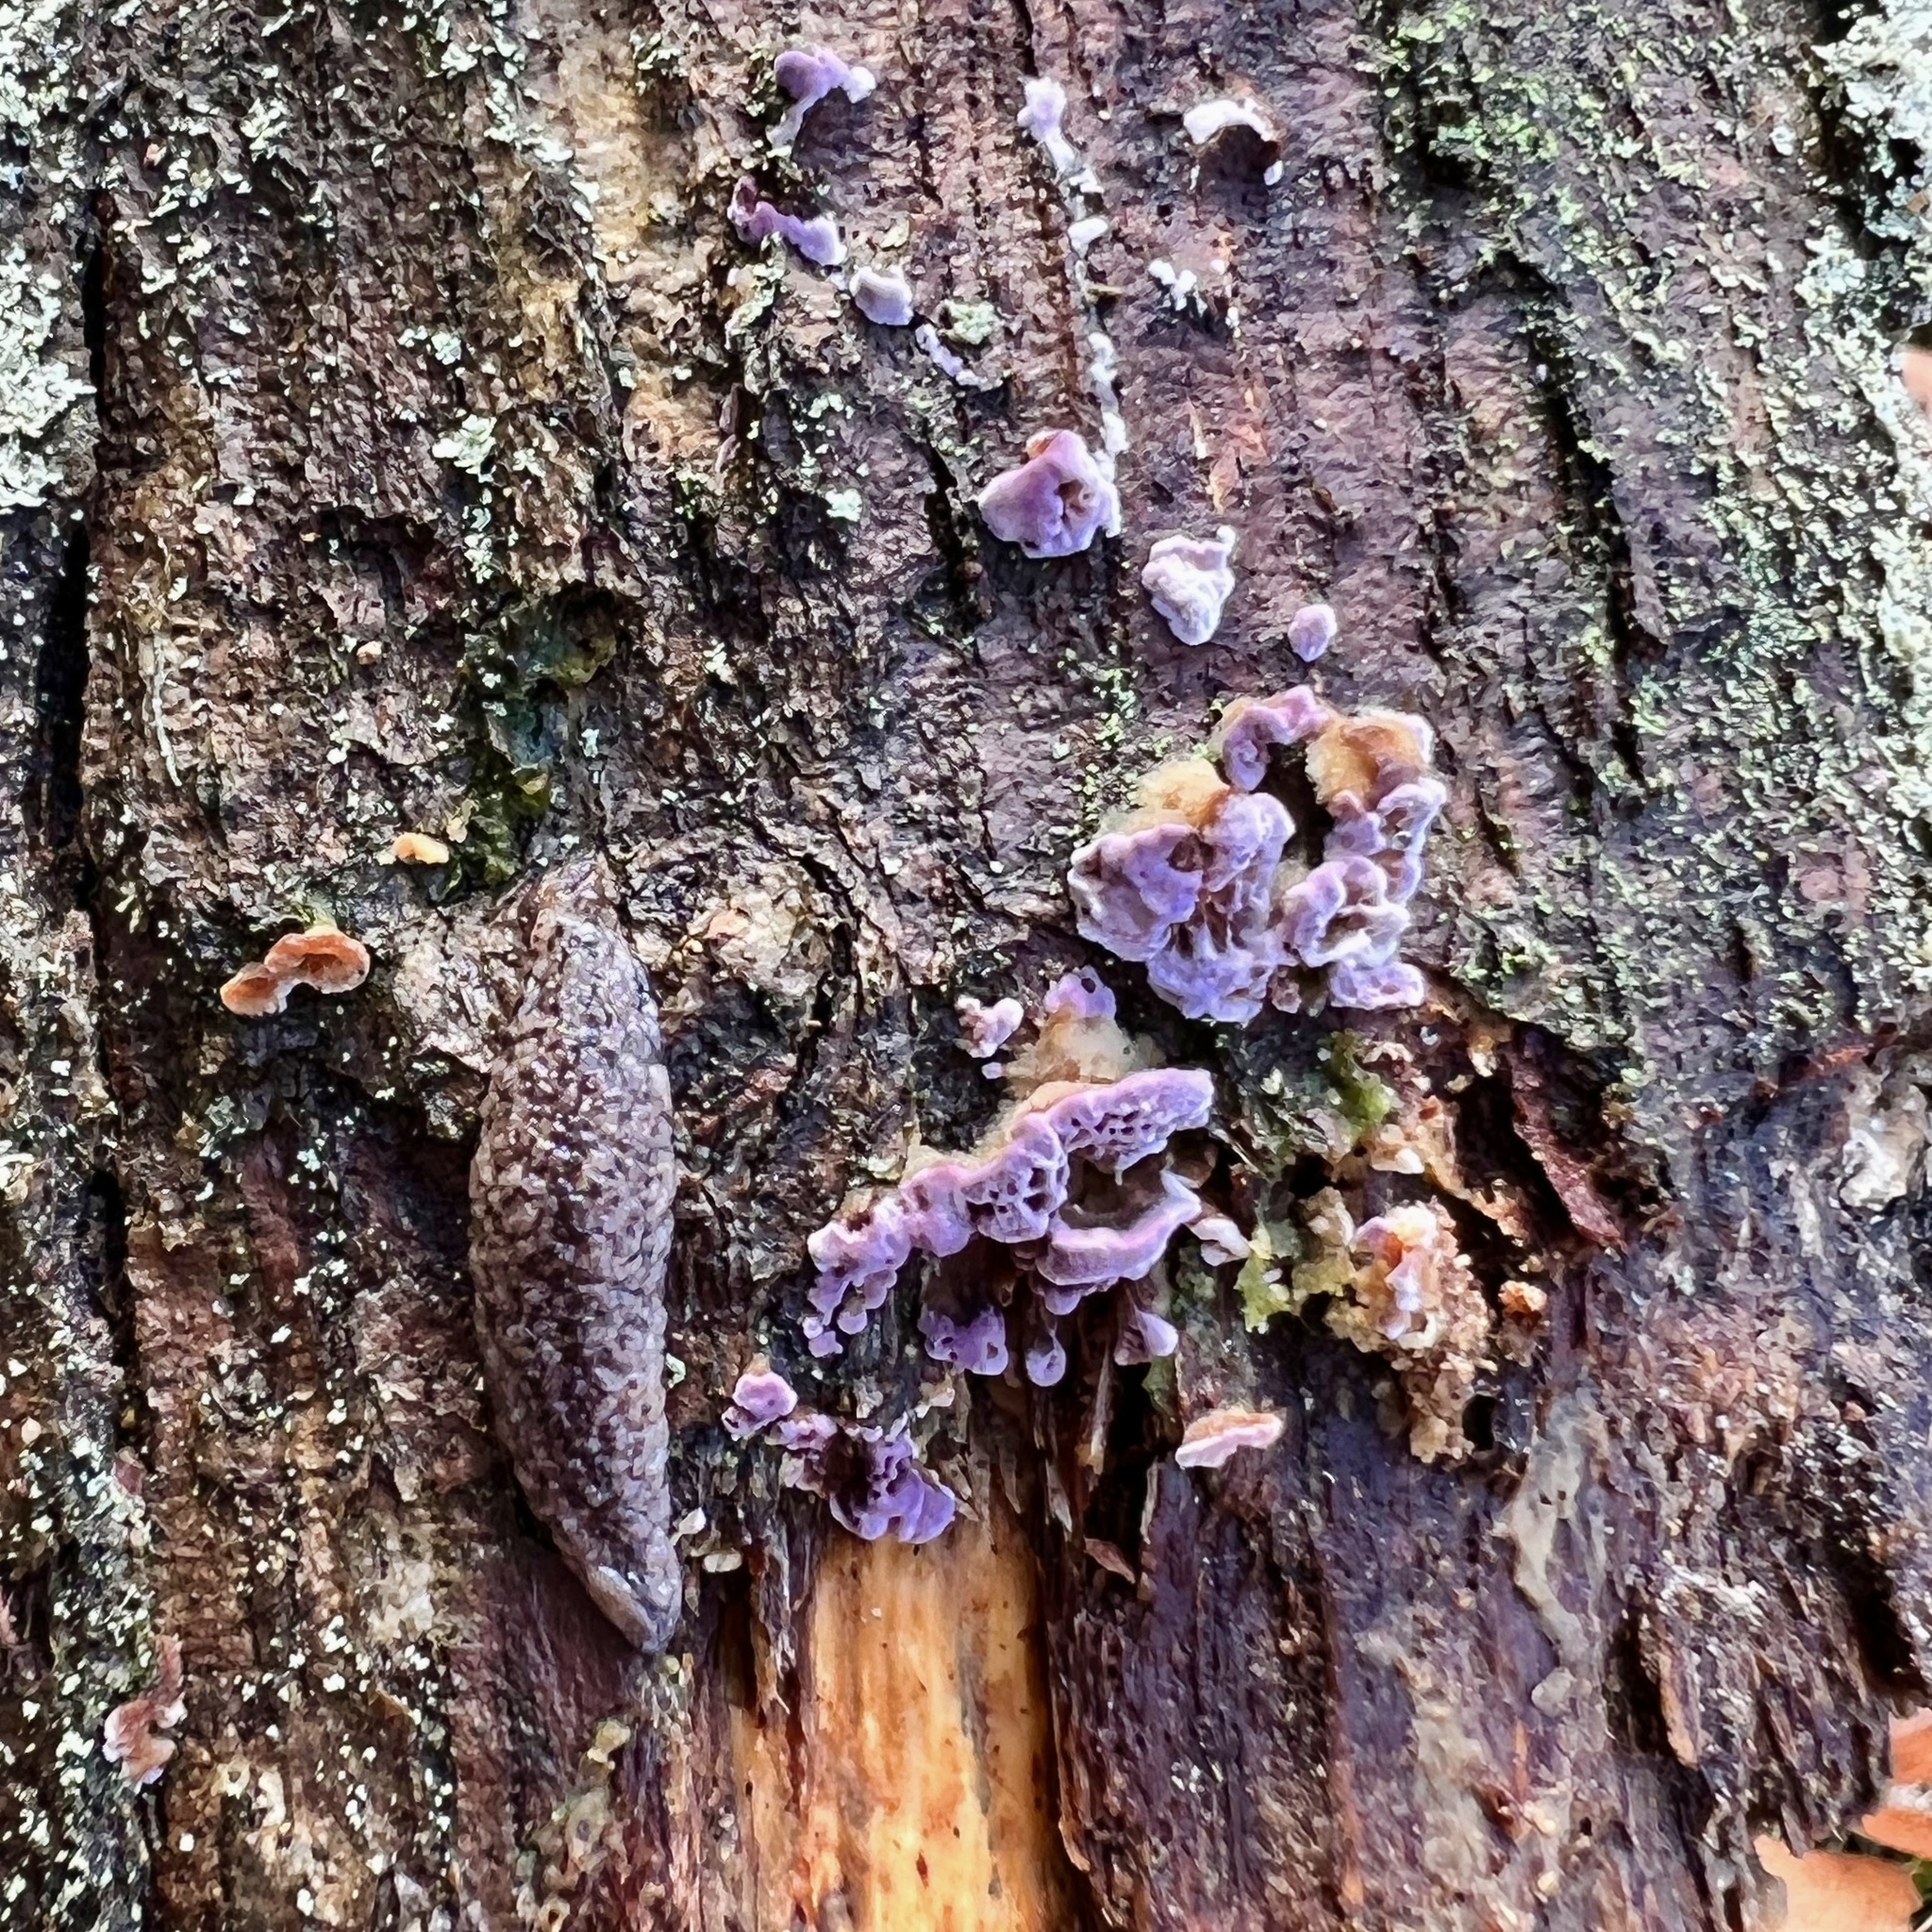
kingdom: Fungi
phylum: Basidiomycota
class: Agaricomycetes
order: Agaricales
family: Cyphellaceae
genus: Chondrostereum
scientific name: Chondrostereum purpureum
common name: Silver leaf disease
